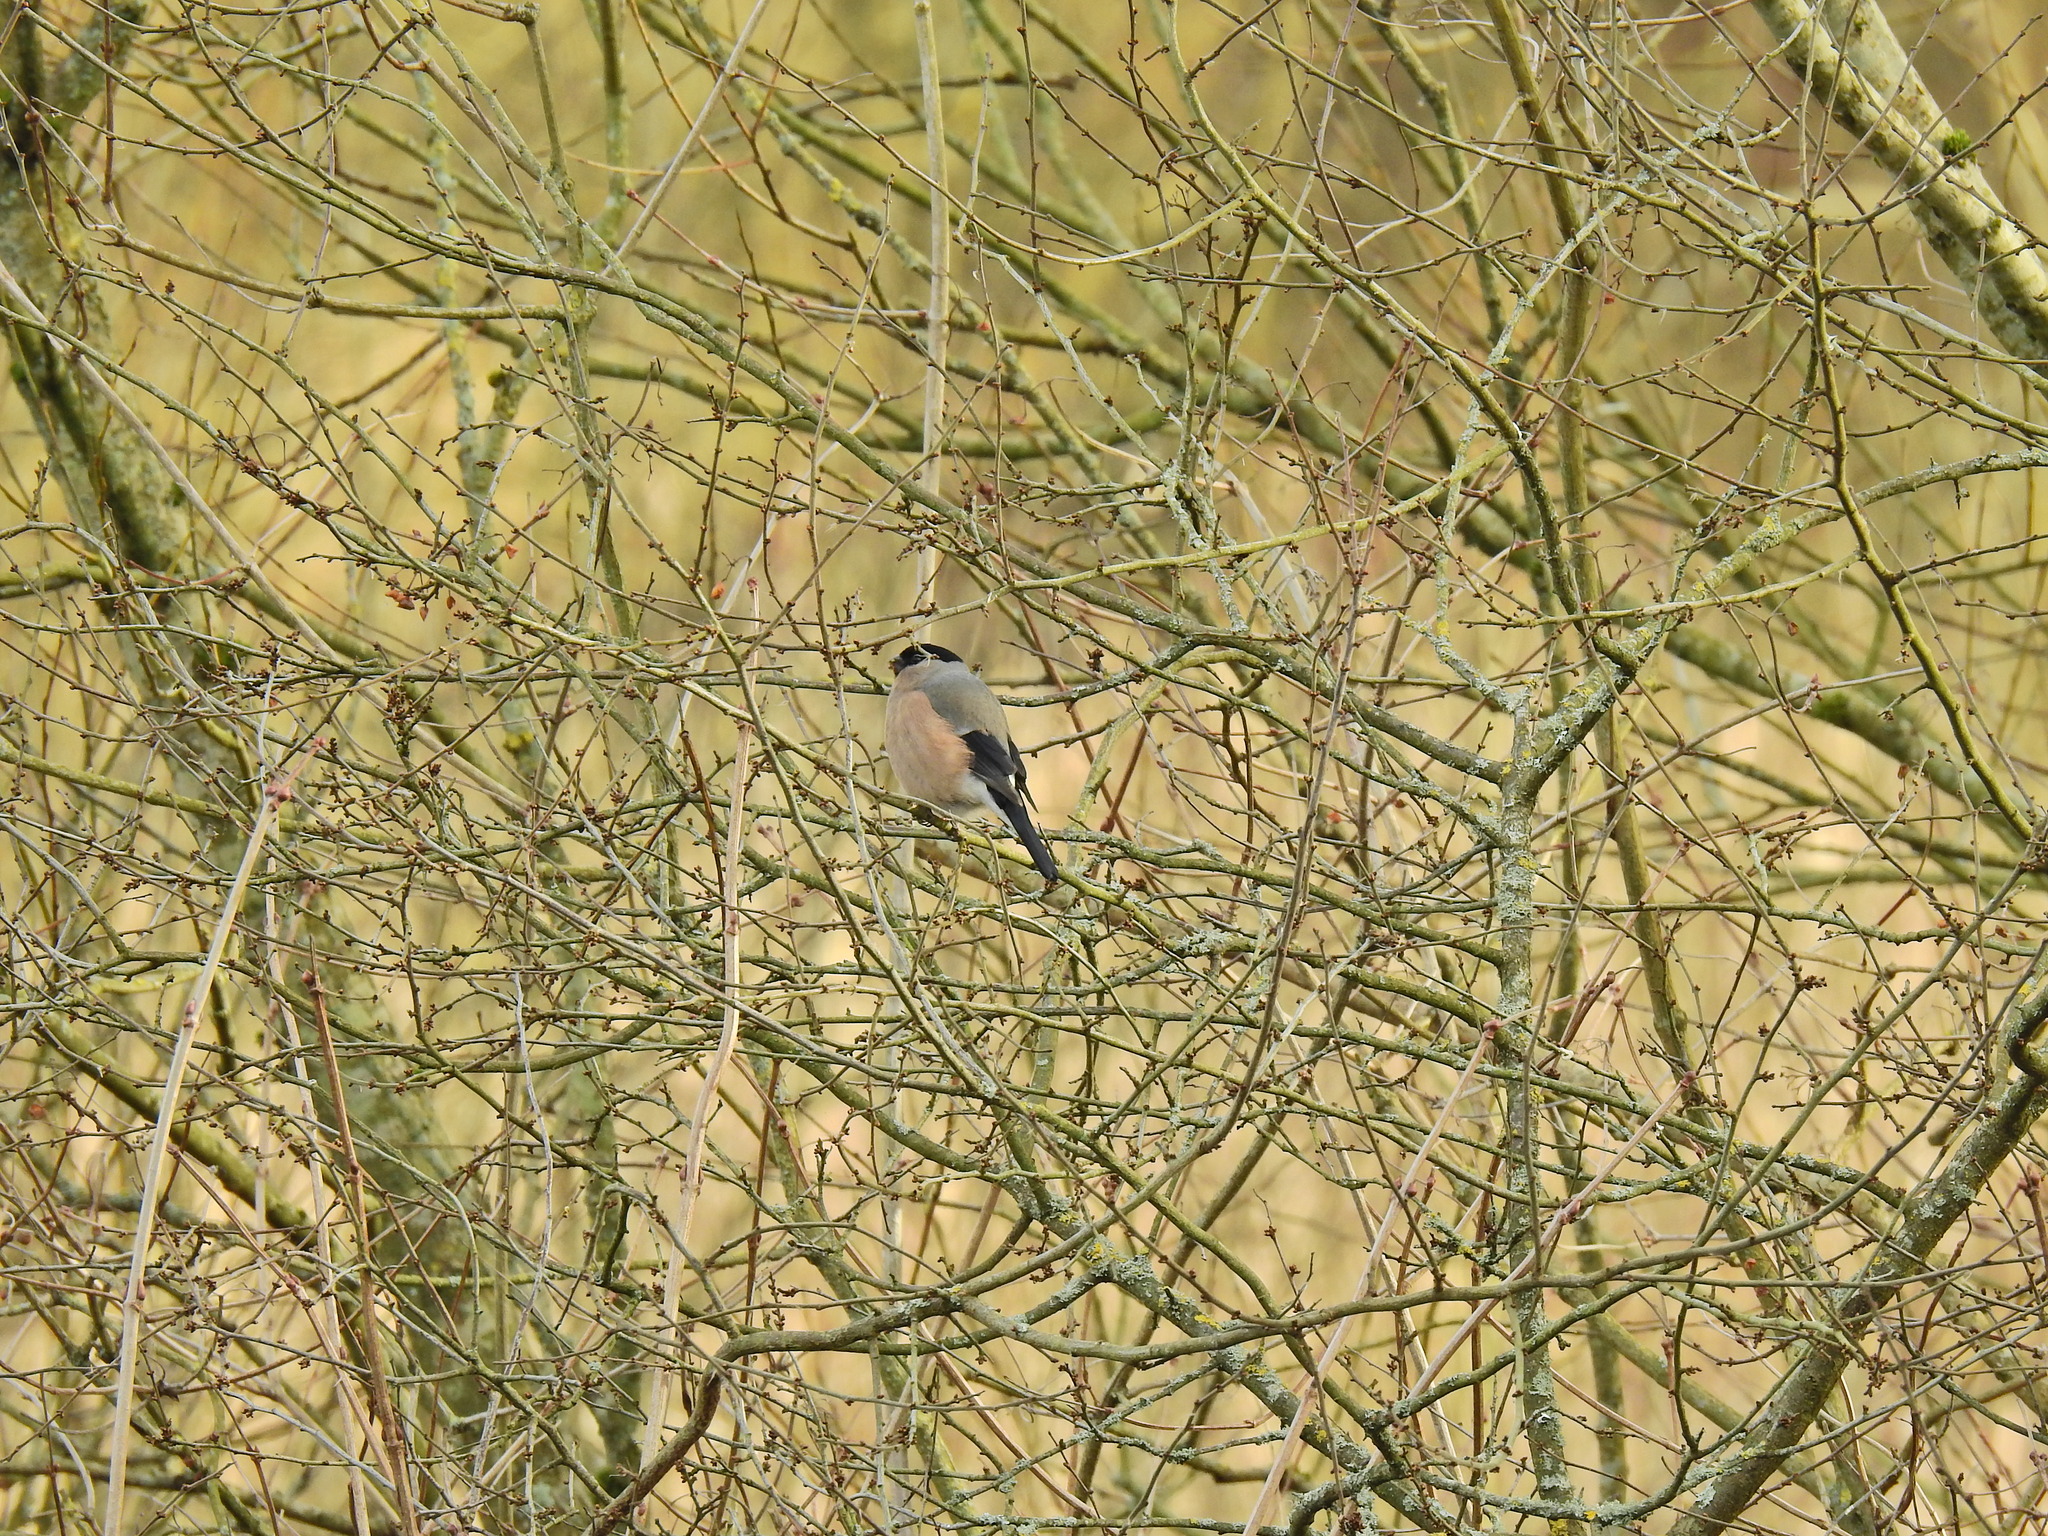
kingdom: Animalia
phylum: Chordata
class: Aves
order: Passeriformes
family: Fringillidae
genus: Pyrrhula
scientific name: Pyrrhula pyrrhula
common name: Eurasian bullfinch
